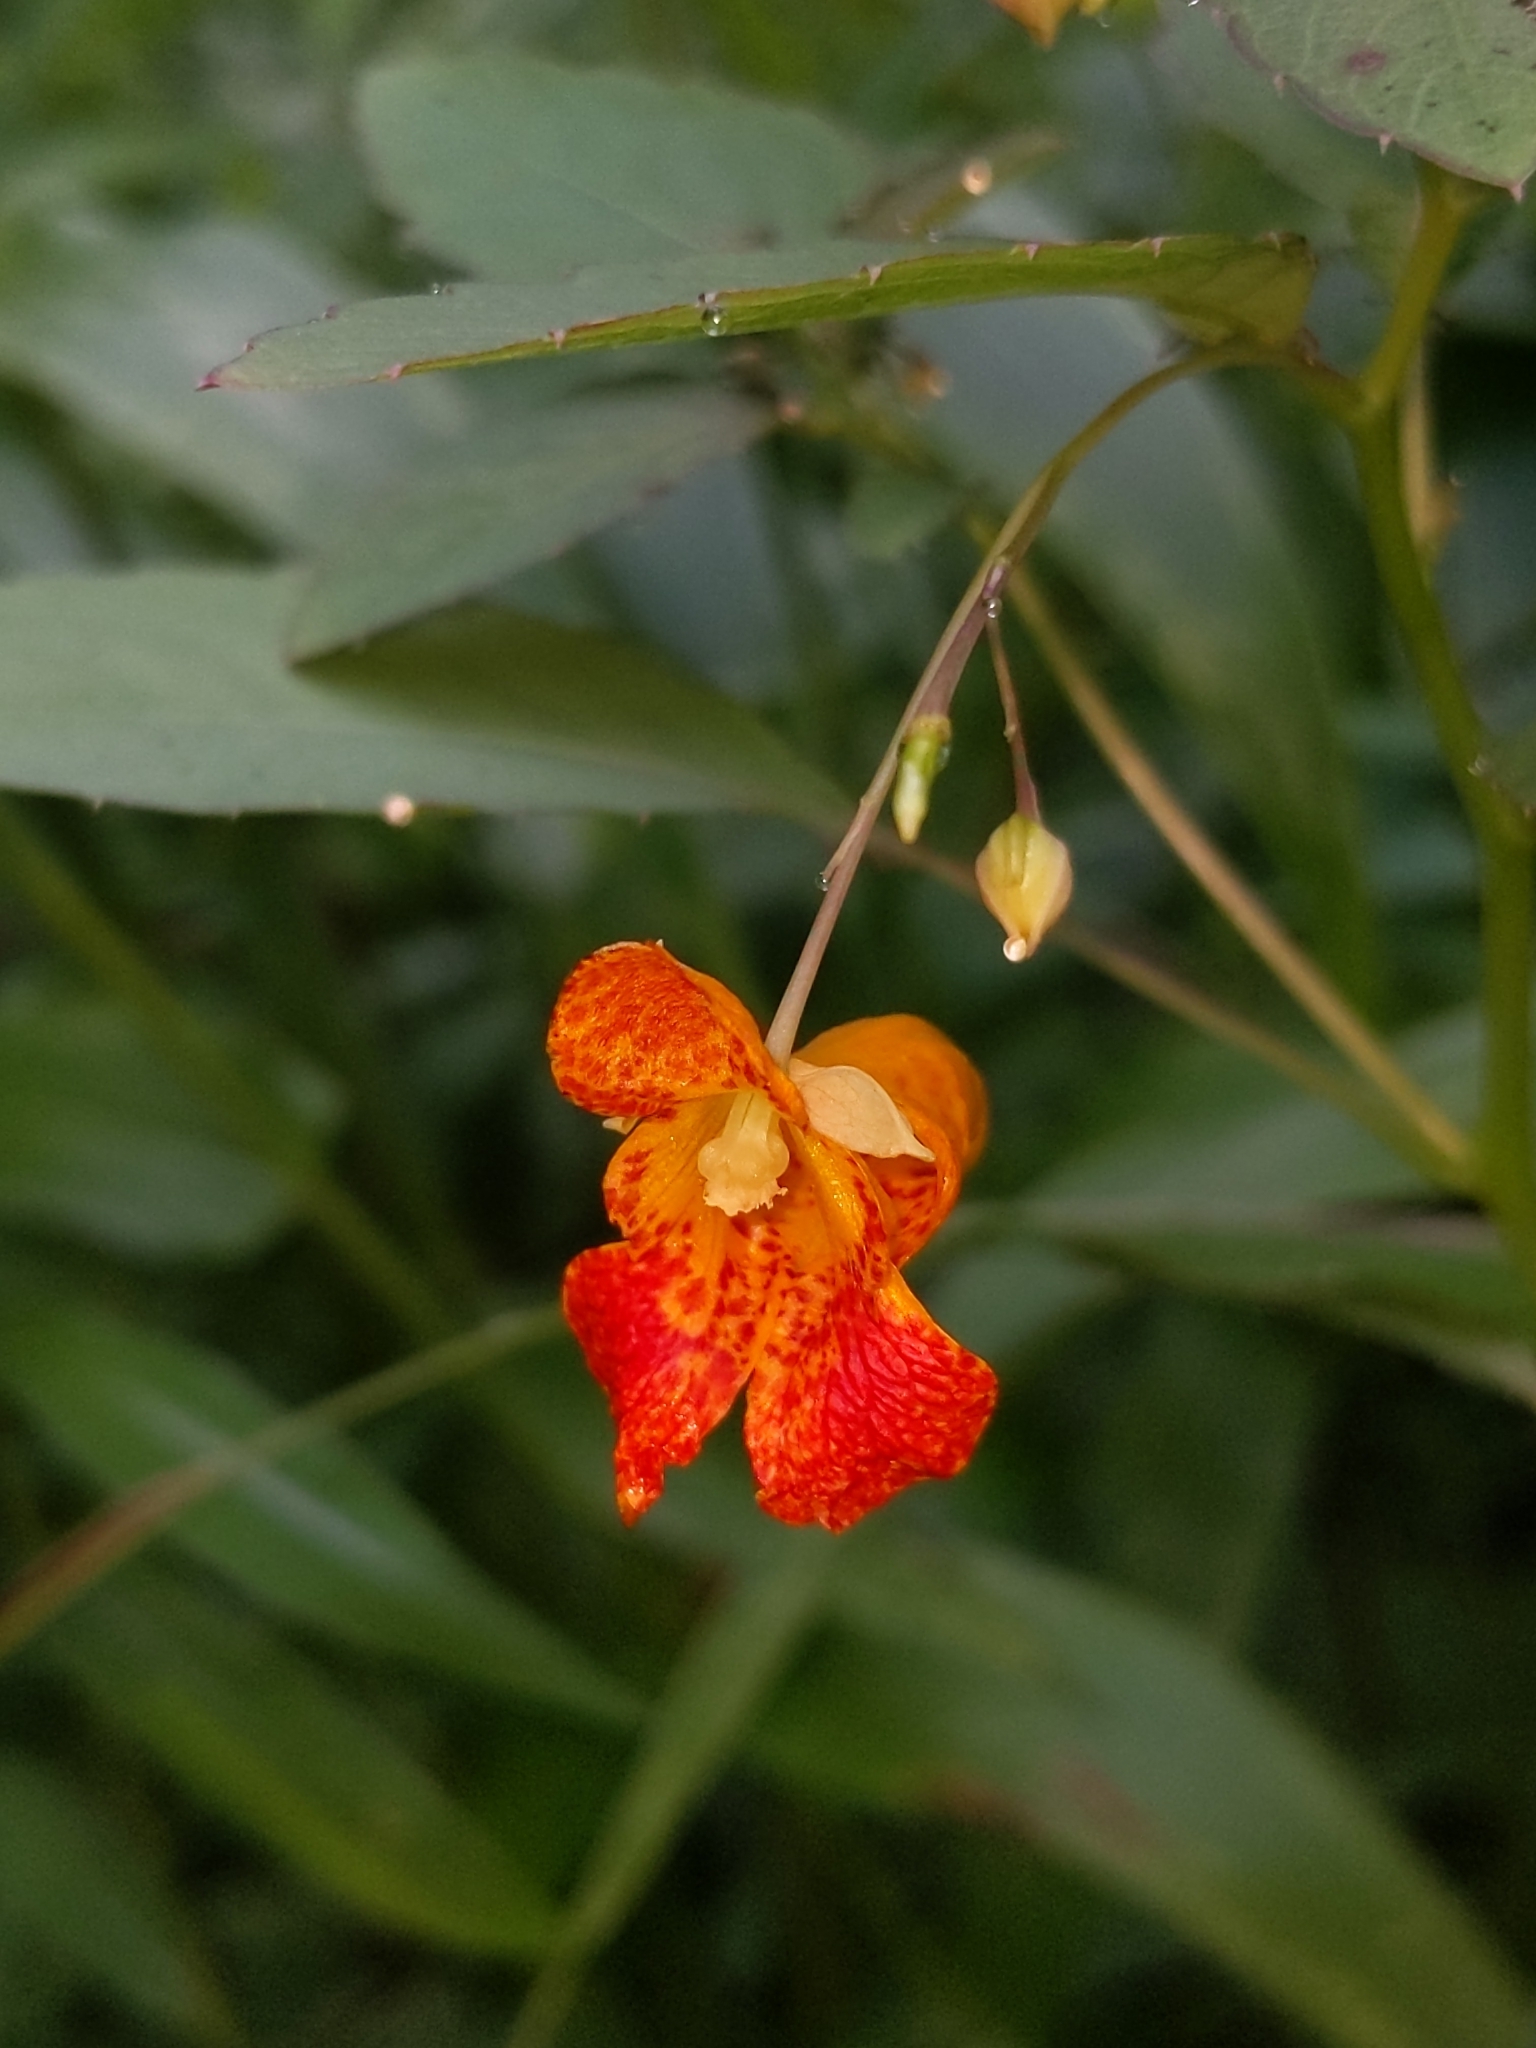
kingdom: Plantae
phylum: Tracheophyta
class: Magnoliopsida
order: Ericales
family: Balsaminaceae
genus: Impatiens
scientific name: Impatiens capensis
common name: Orange balsam
